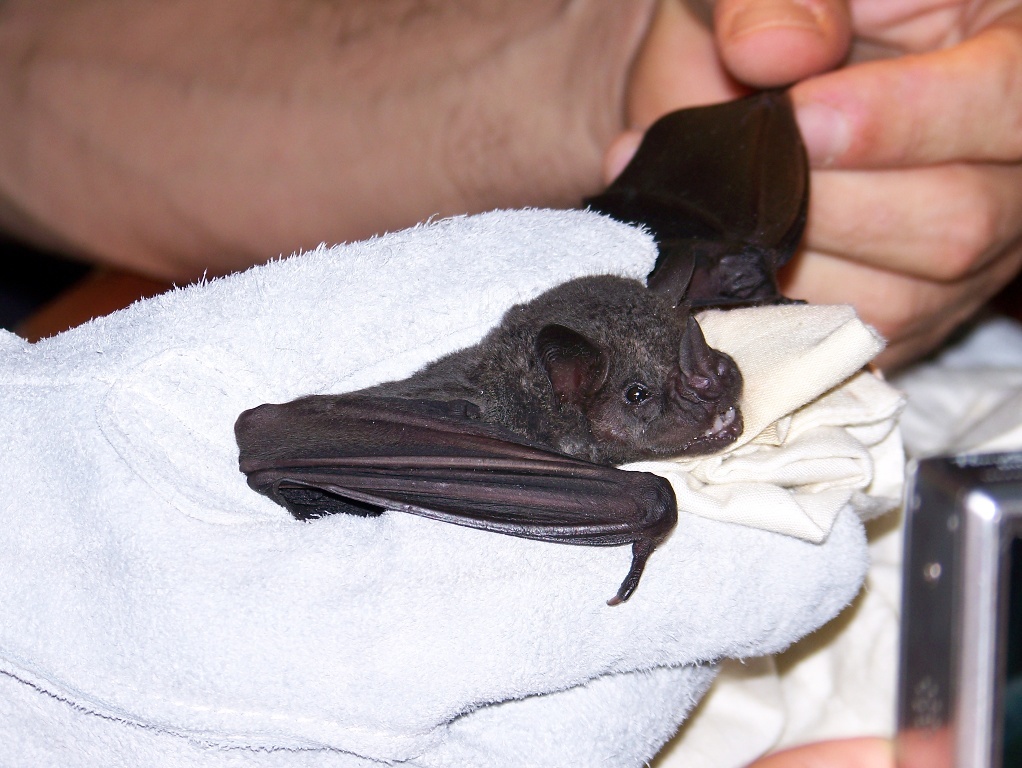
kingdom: Animalia
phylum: Chordata
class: Mammalia
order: Chiroptera
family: Phyllostomidae
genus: Artibeus
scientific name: Artibeus obscurus
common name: Dark fruit-eating bat
